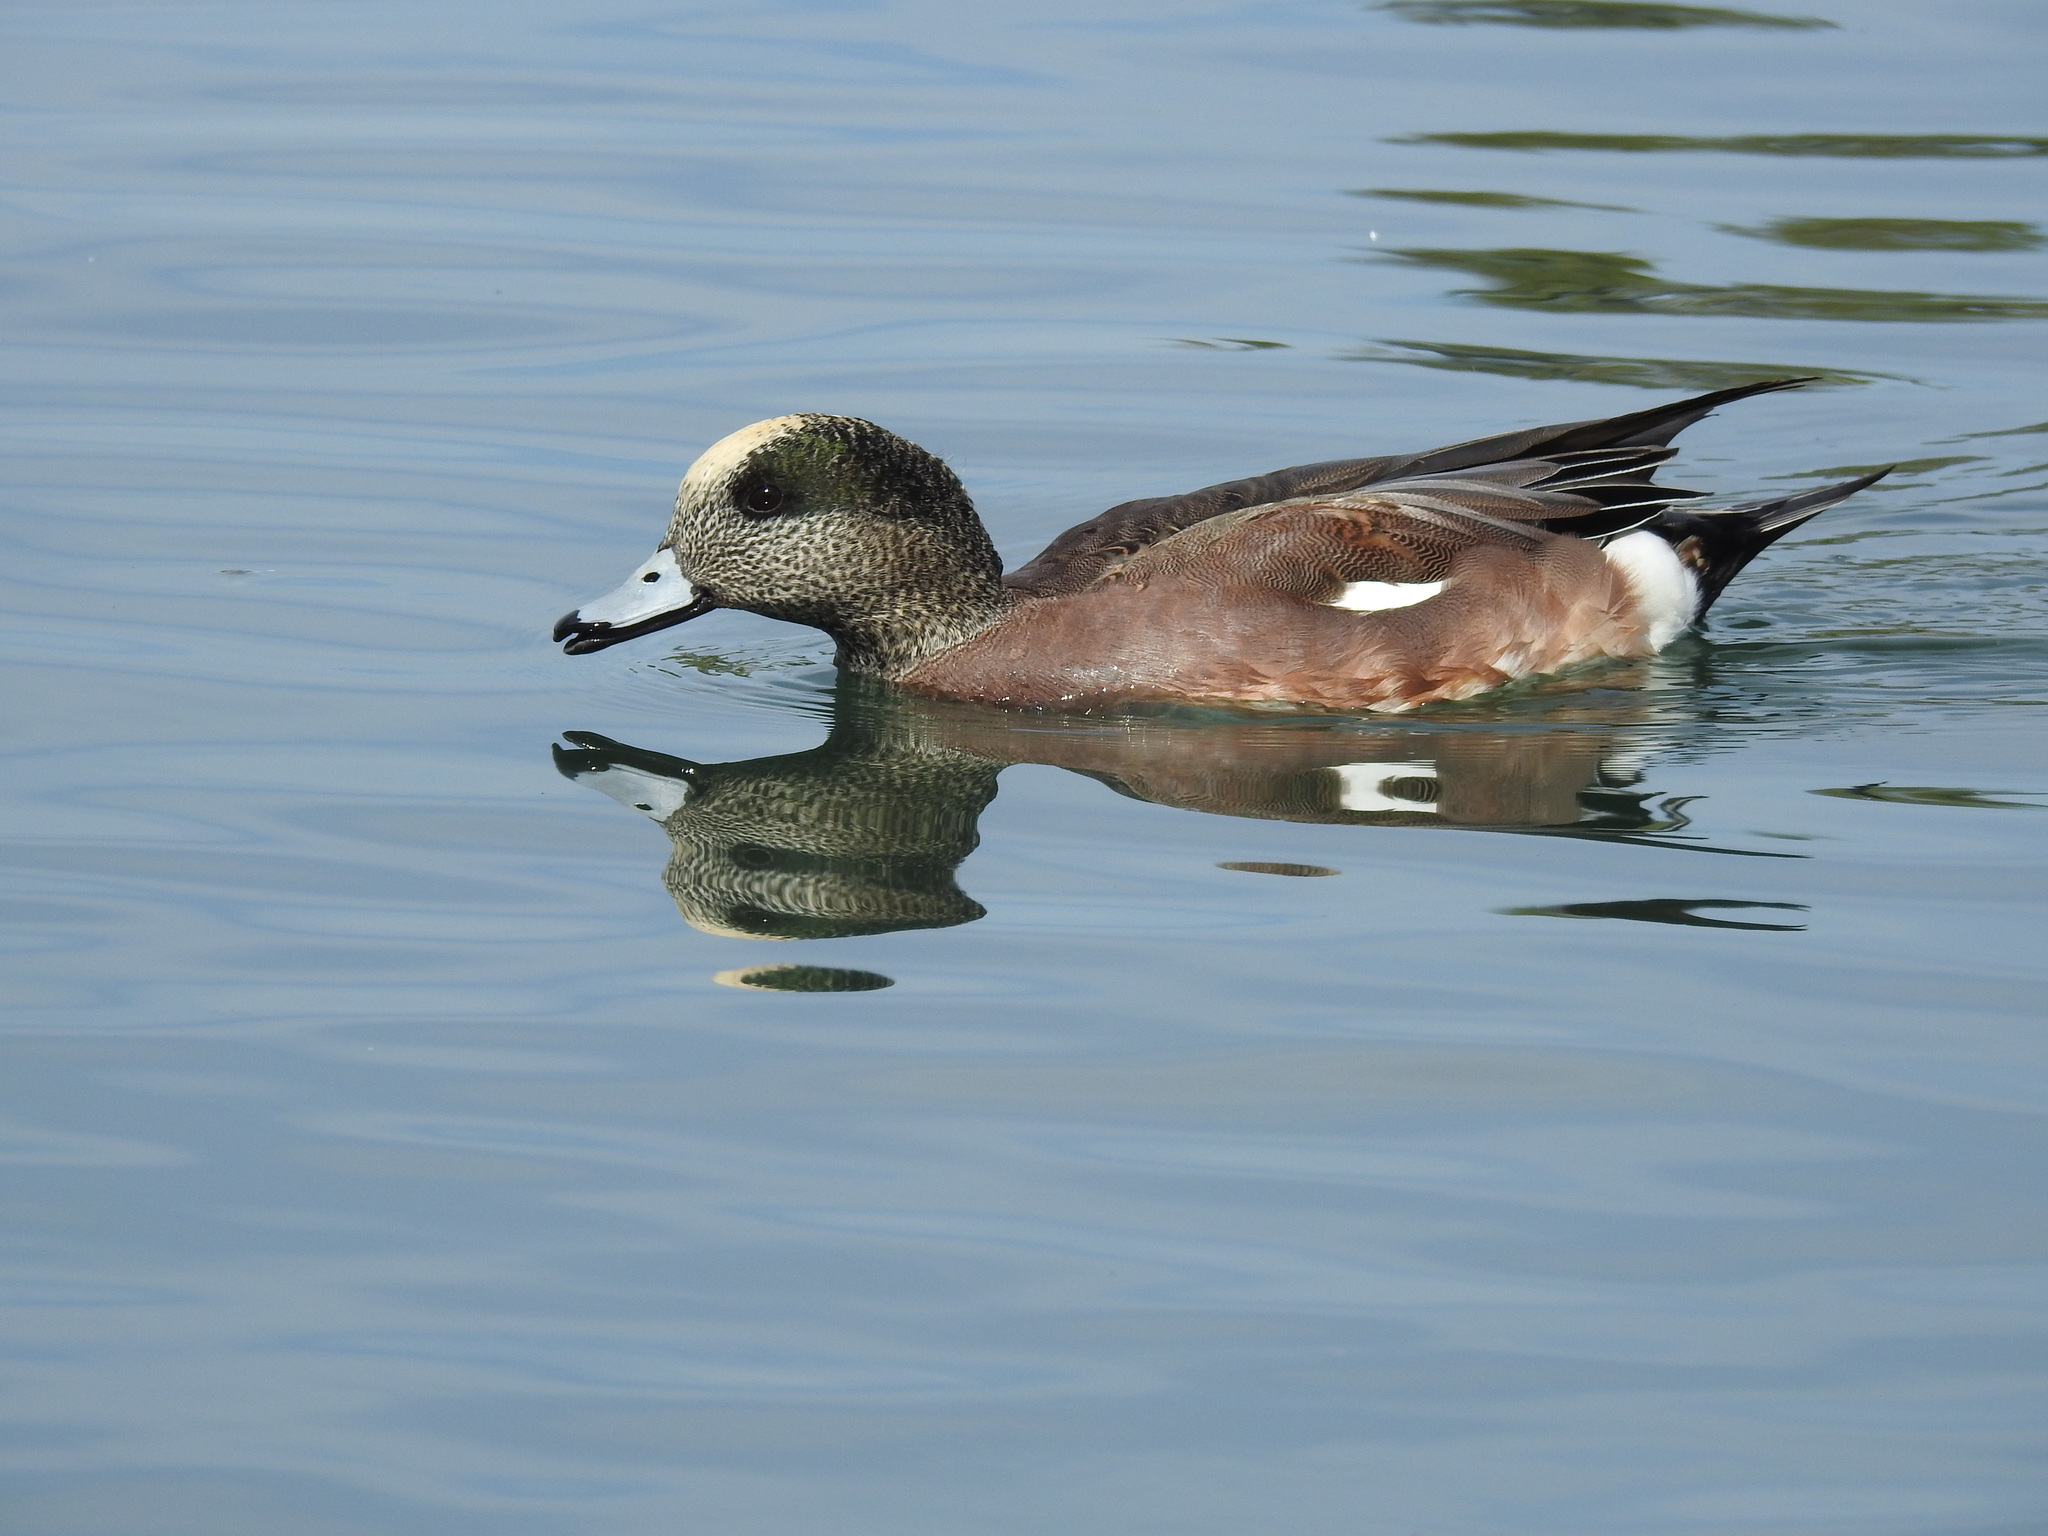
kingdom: Animalia
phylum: Chordata
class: Aves
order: Anseriformes
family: Anatidae
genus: Mareca
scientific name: Mareca americana
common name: American wigeon
